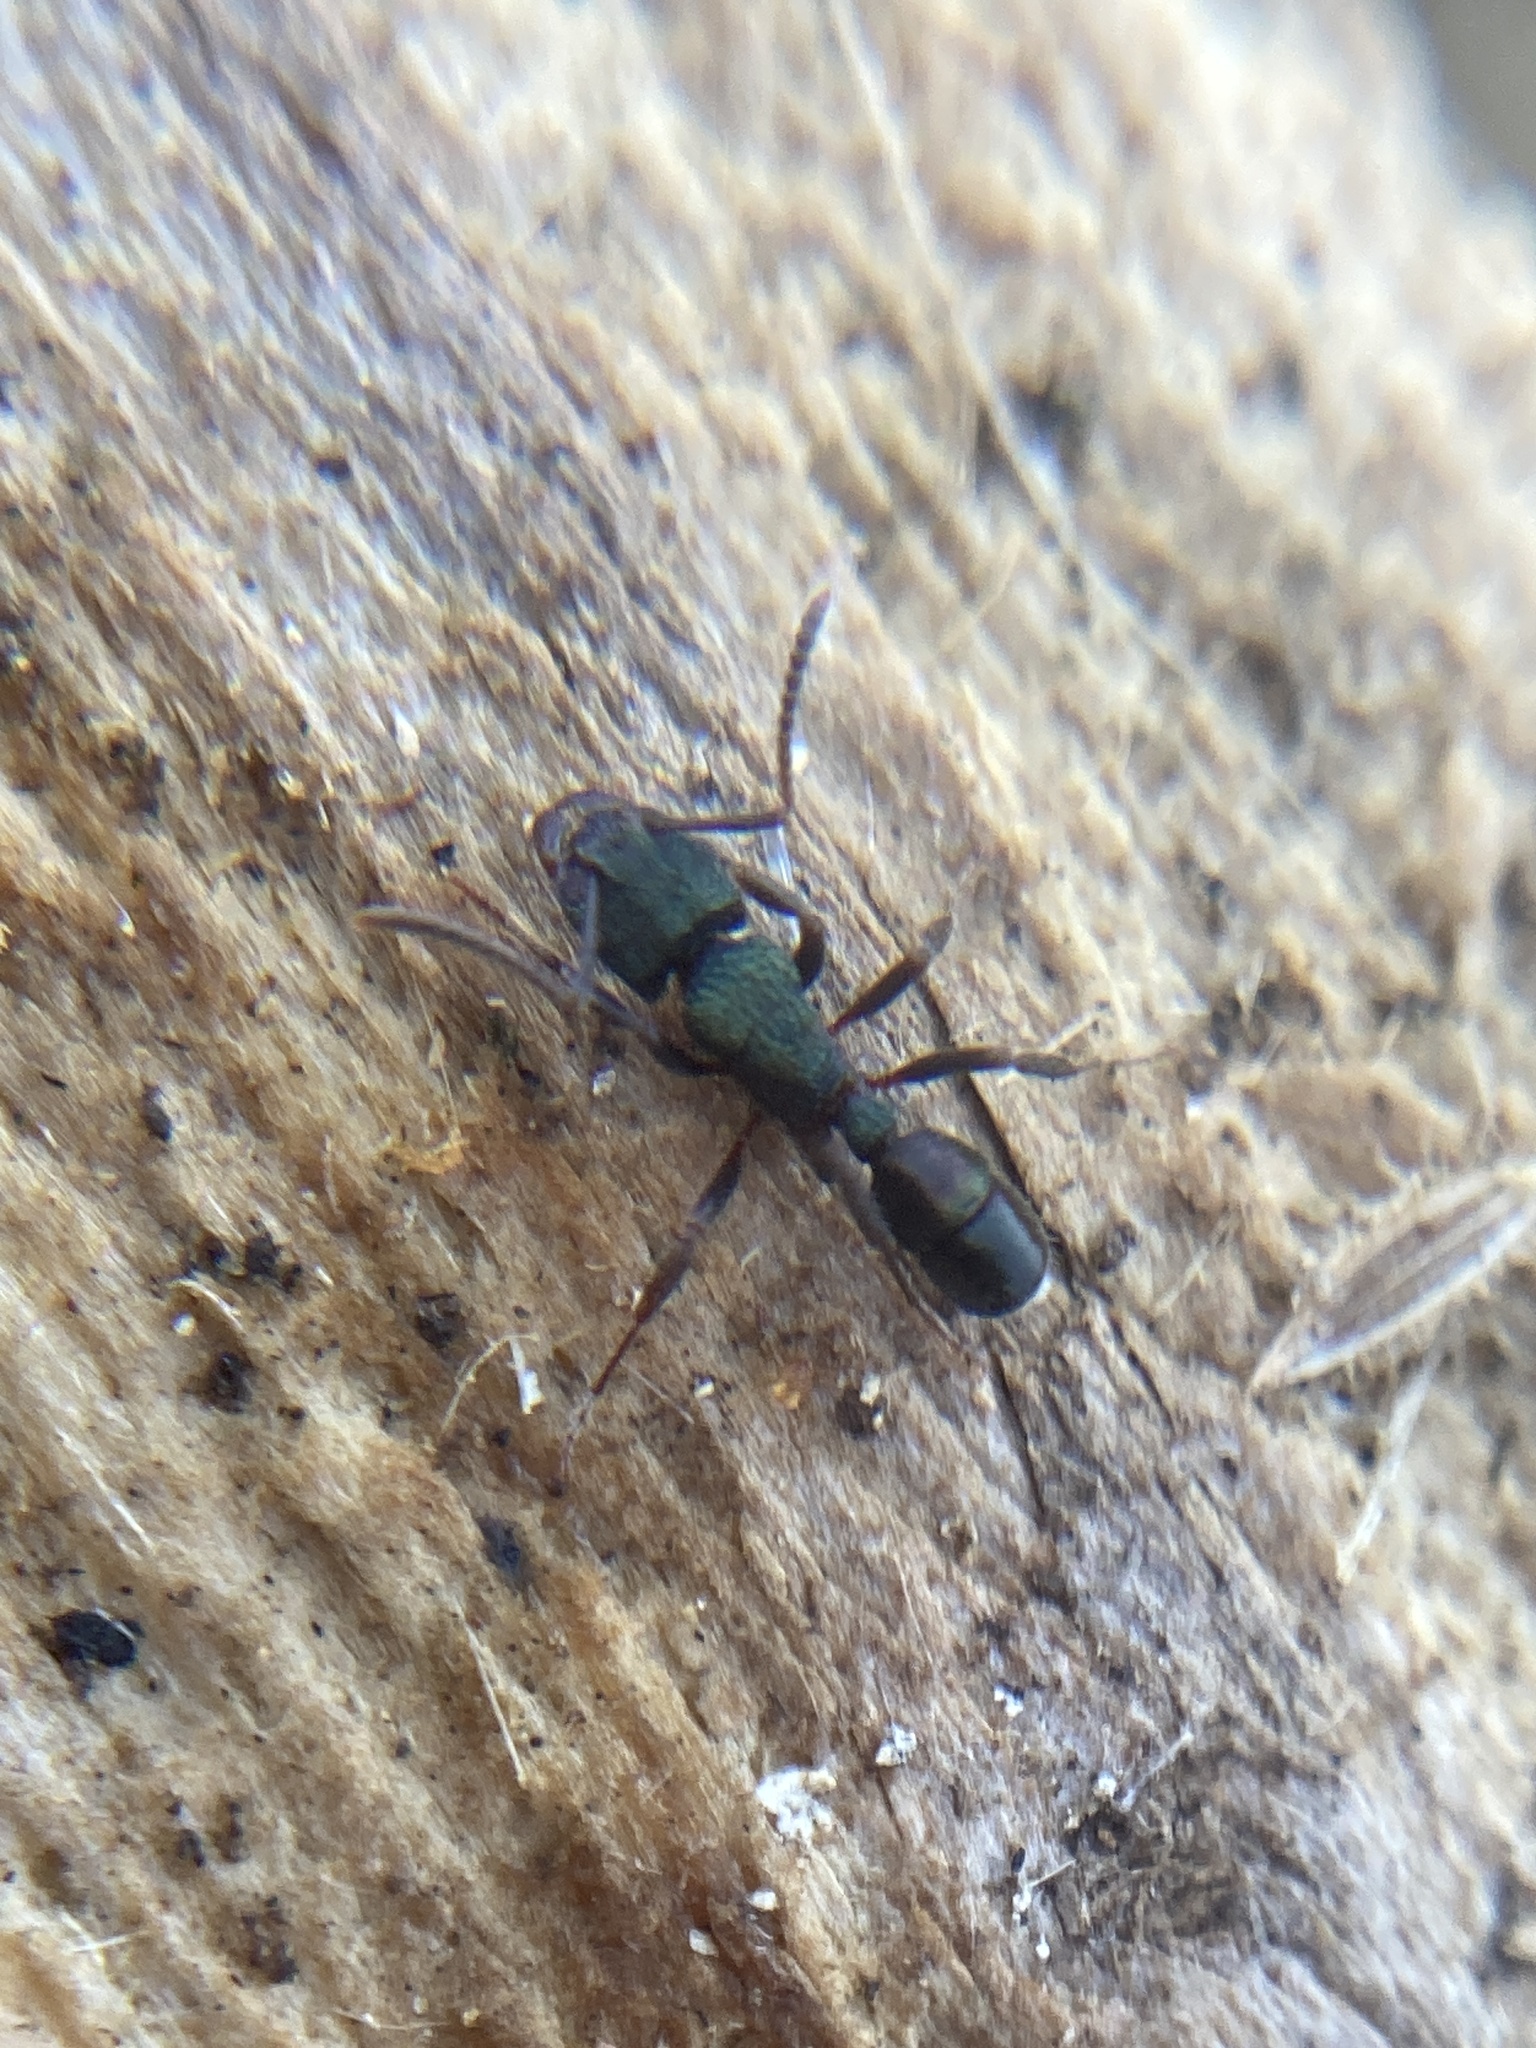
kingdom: Animalia
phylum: Arthropoda
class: Insecta
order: Hymenoptera
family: Formicidae
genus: Rhytidoponera
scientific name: Rhytidoponera metallica
